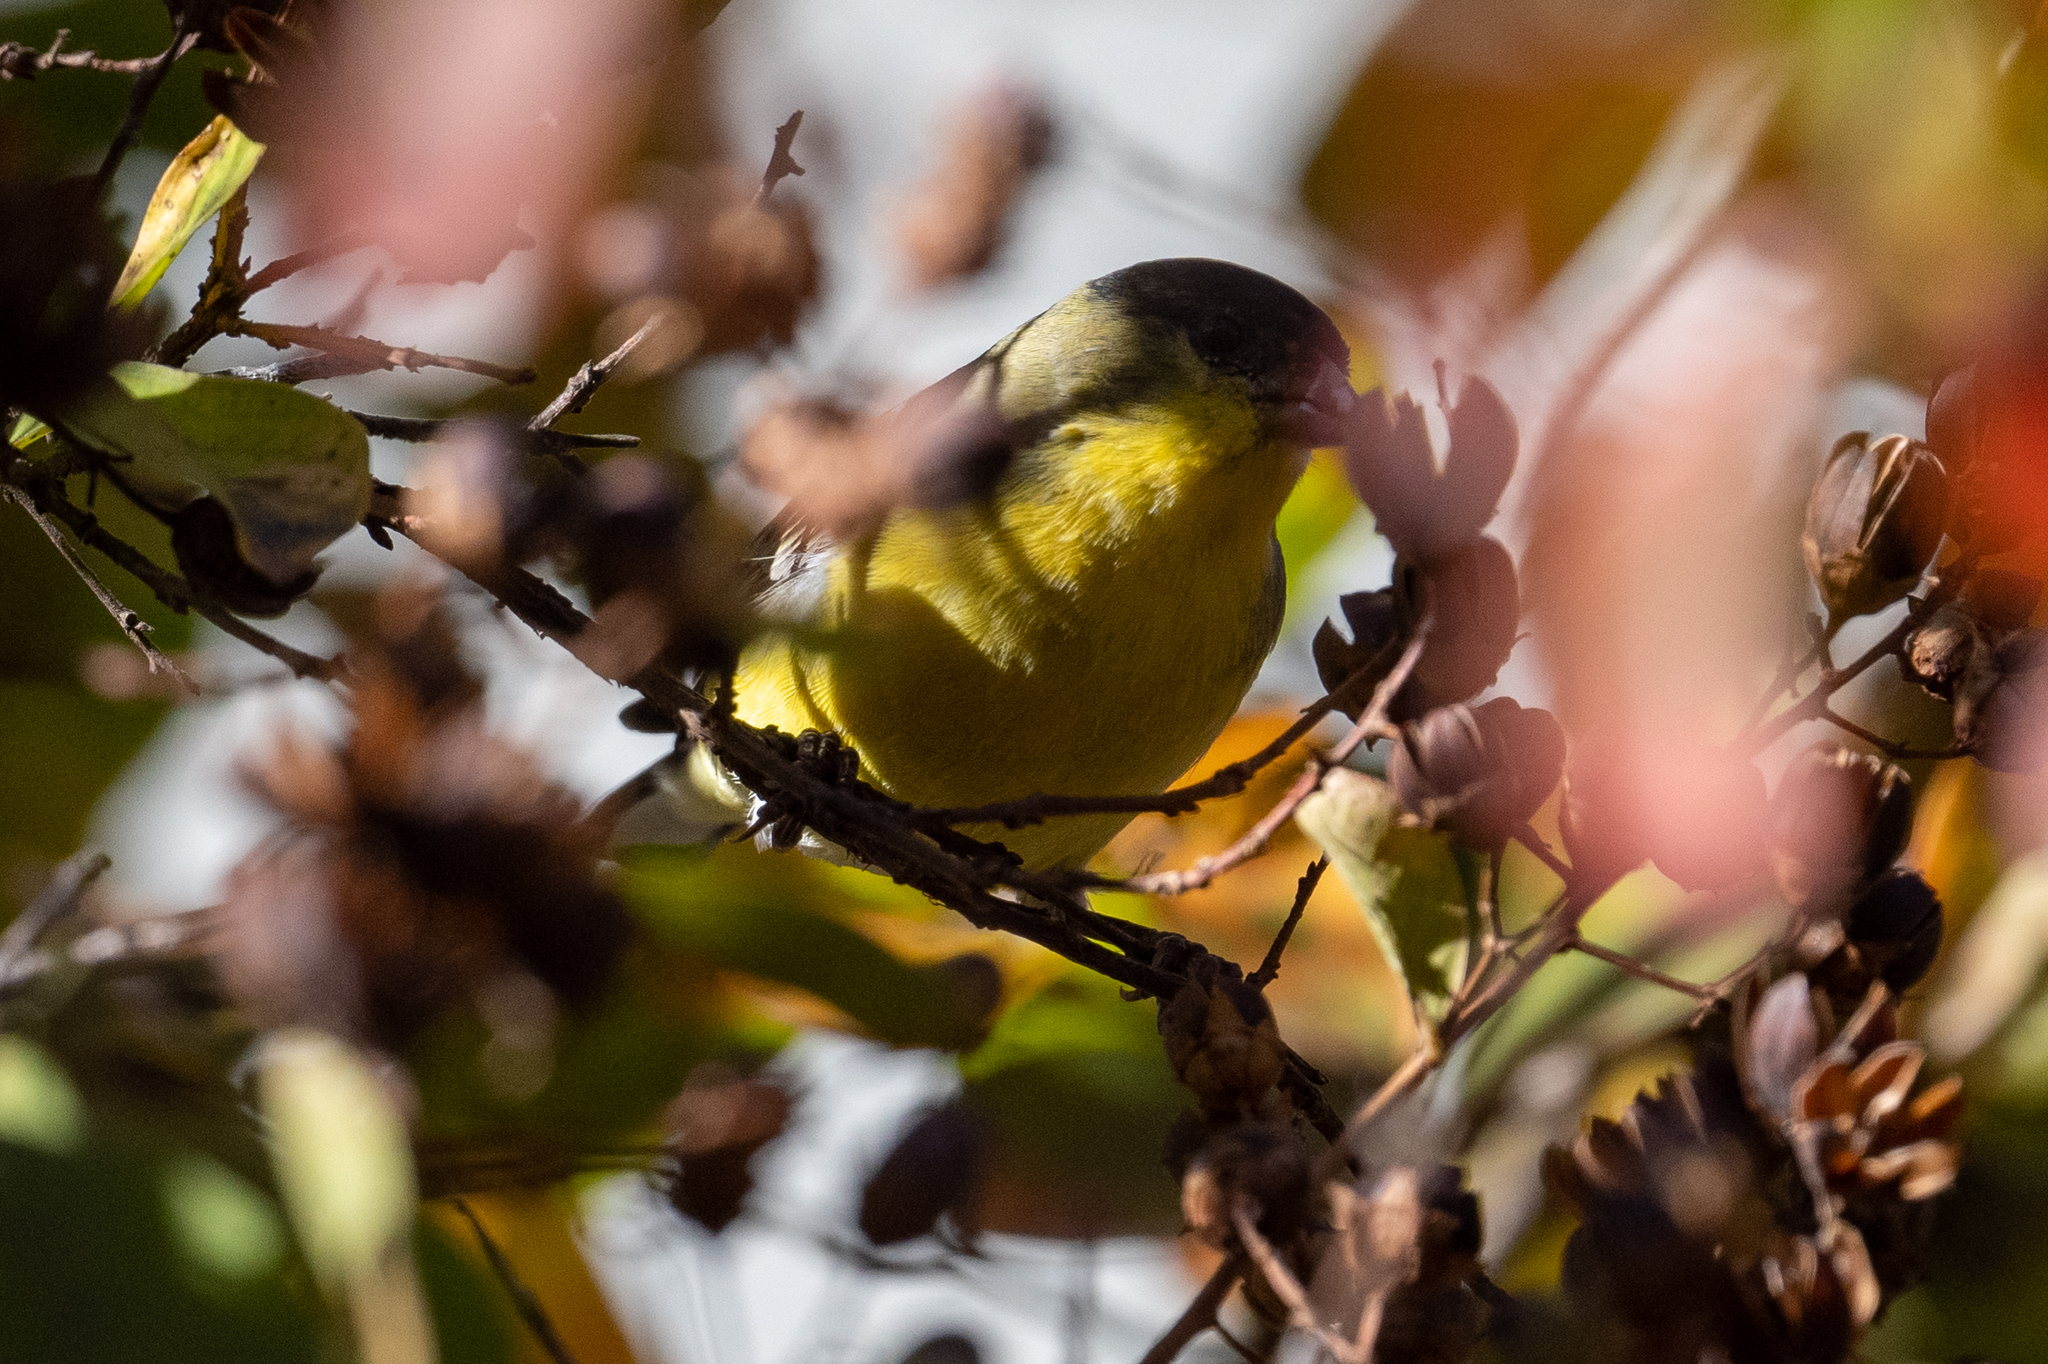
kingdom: Animalia
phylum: Chordata
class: Aves
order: Passeriformes
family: Fringillidae
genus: Spinus
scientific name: Spinus psaltria
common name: Lesser goldfinch
